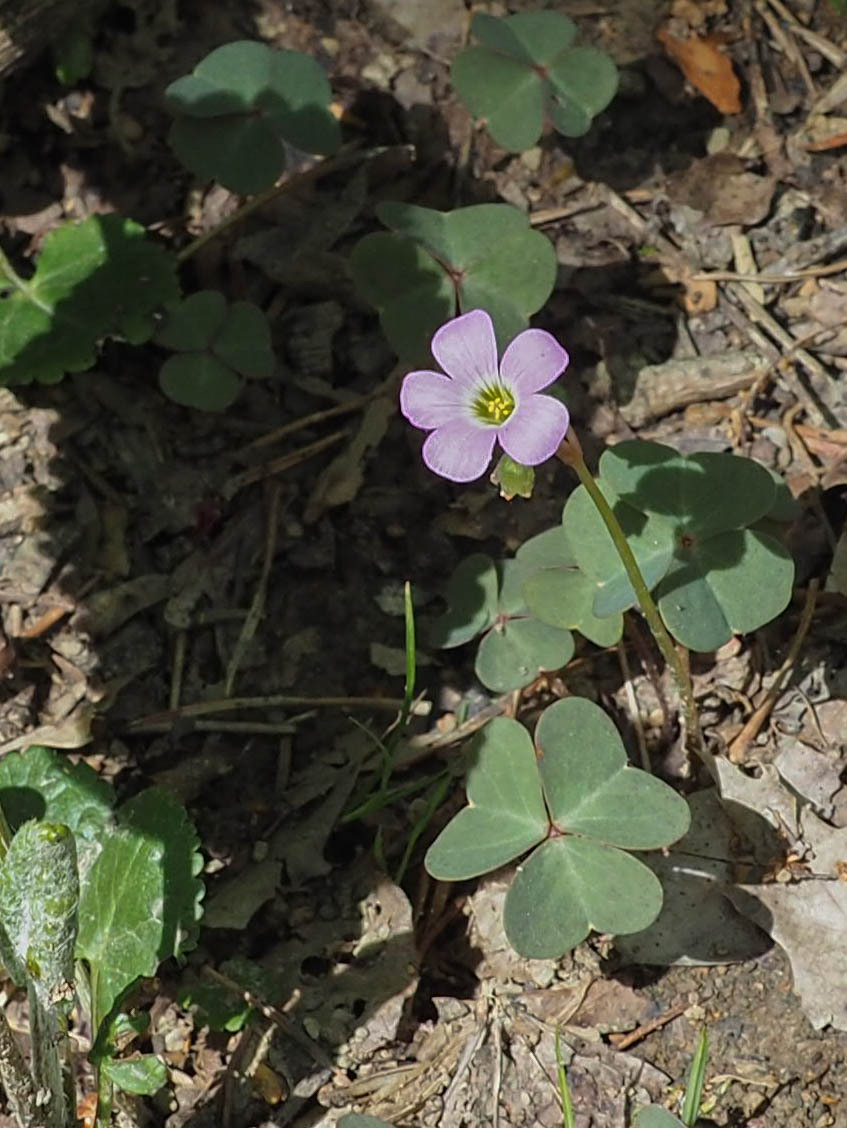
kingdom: Plantae
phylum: Tracheophyta
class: Magnoliopsida
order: Oxalidales
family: Oxalidaceae
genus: Oxalis
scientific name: Oxalis violacea
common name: Violet wood-sorrel
